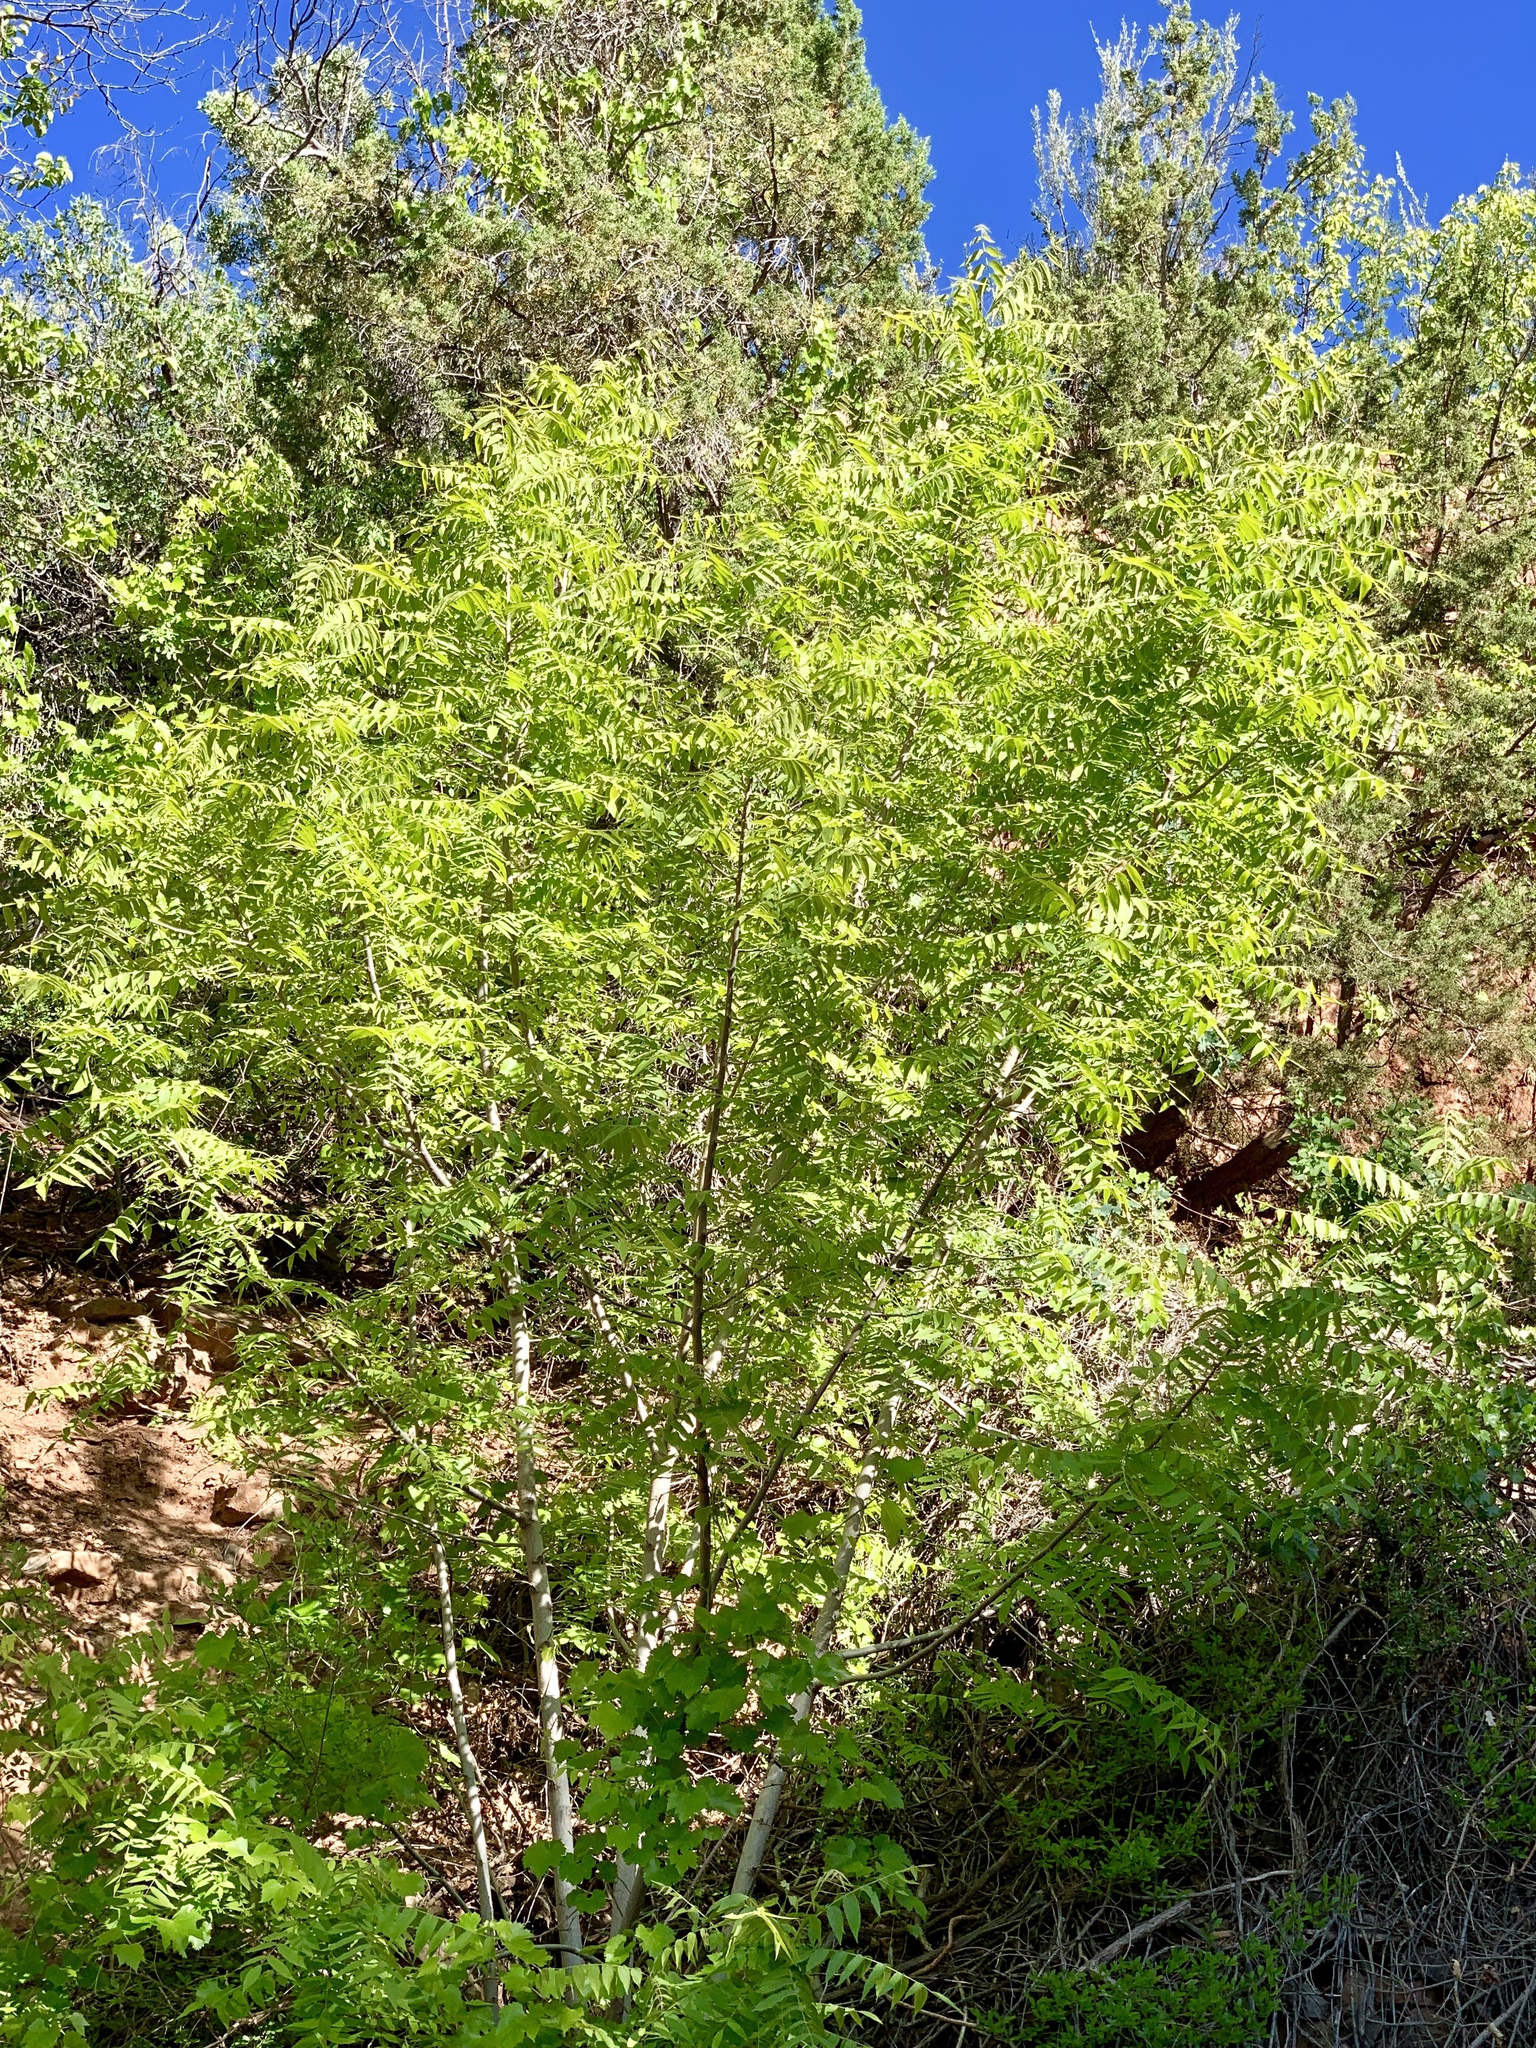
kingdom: Plantae
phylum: Tracheophyta
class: Magnoliopsida
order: Fagales
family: Juglandaceae
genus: Juglans
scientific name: Juglans major
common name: Arizona walnut
